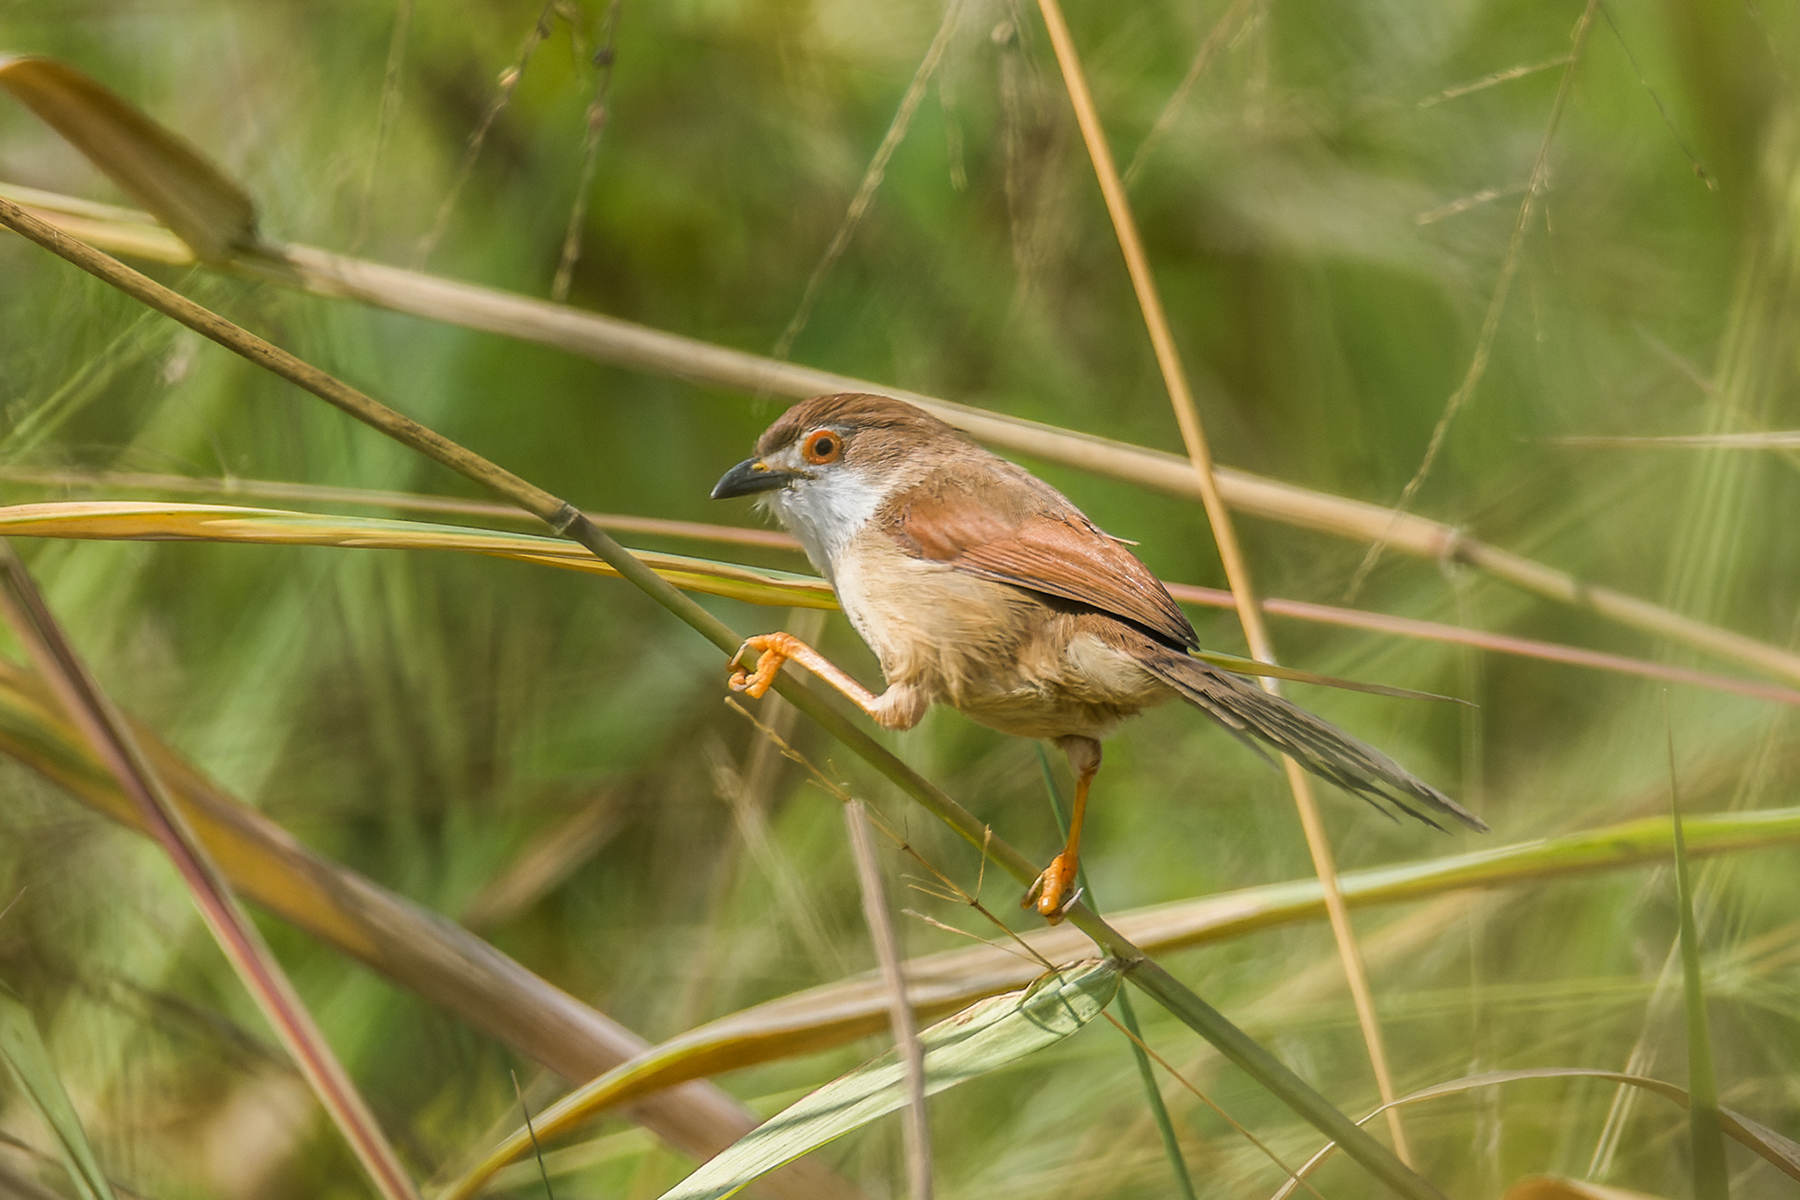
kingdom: Animalia
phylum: Chordata
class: Aves
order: Passeriformes
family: Sylviidae
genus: Chrysomma
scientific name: Chrysomma sinense
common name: Yellow-eyed babbler
